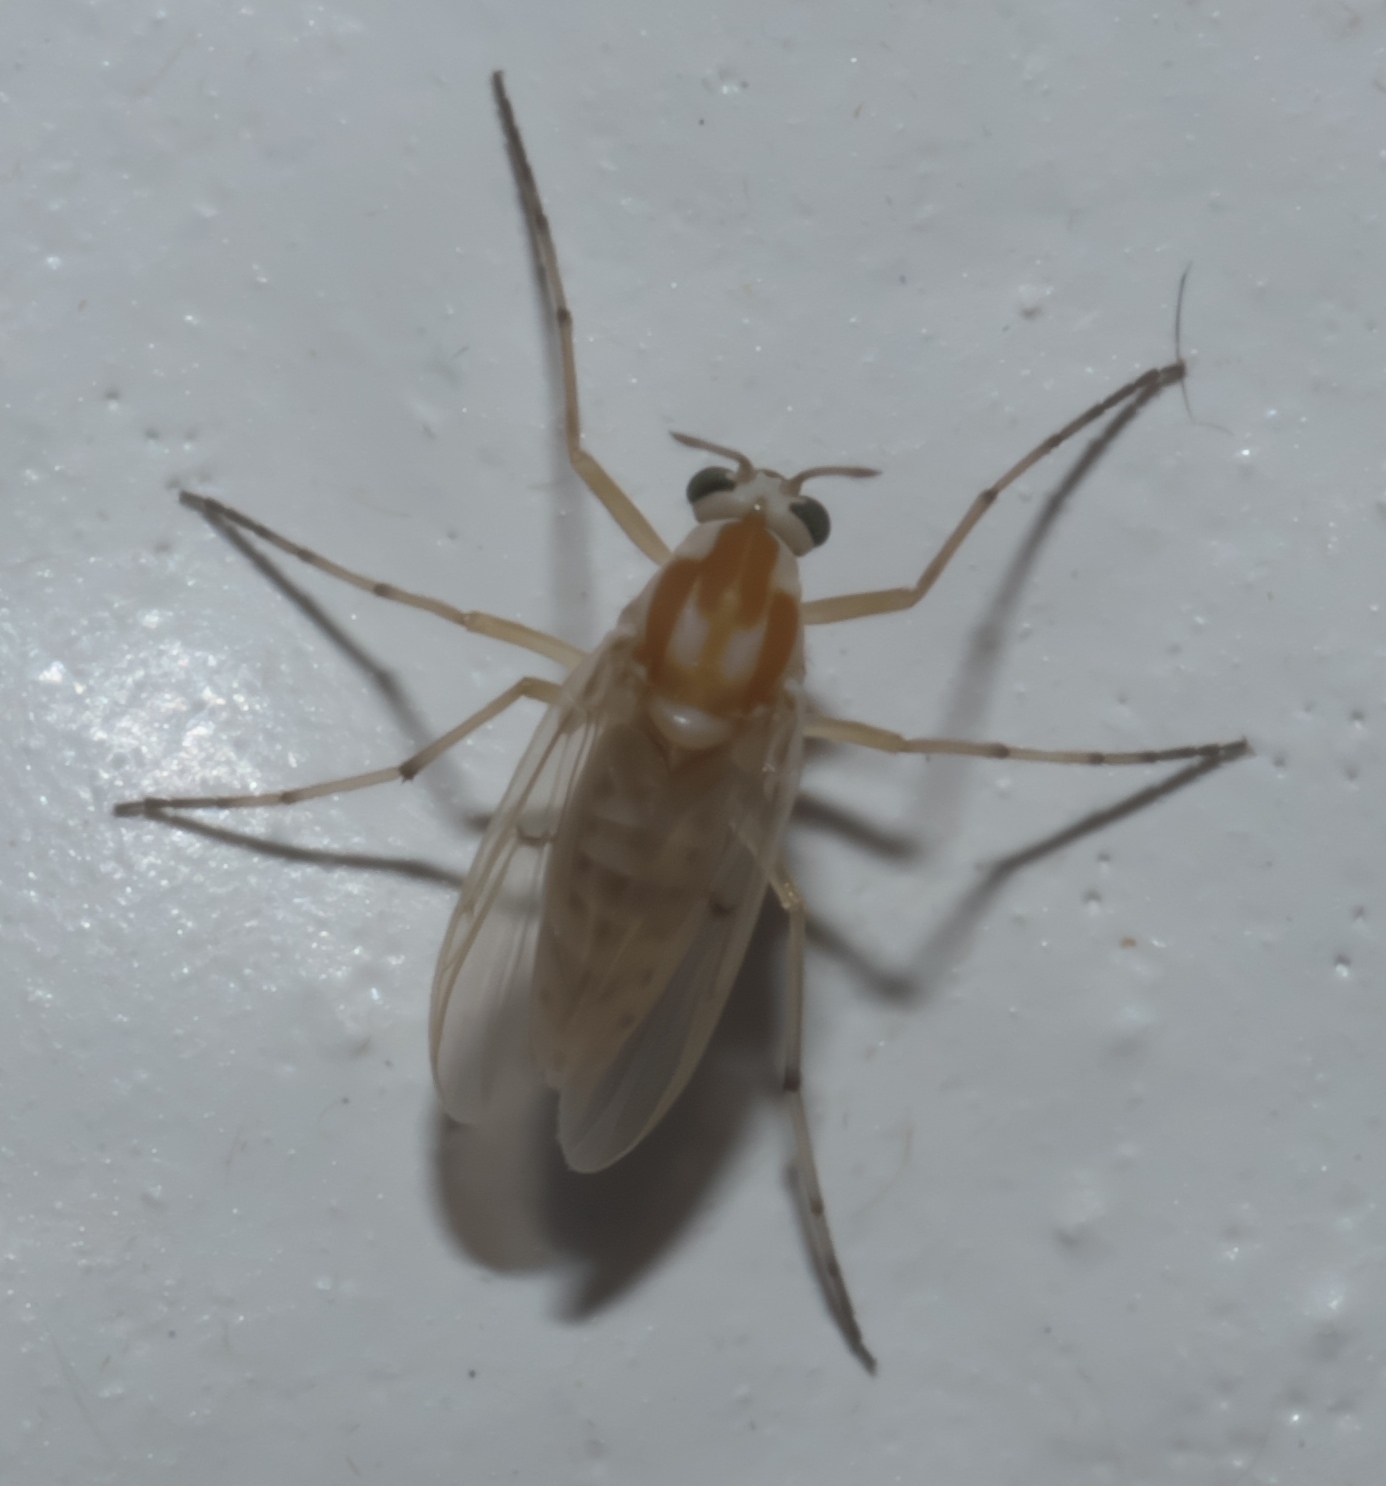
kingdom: Animalia
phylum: Arthropoda
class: Insecta
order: Diptera
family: Chironomidae
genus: Procladius
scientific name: Procladius bellus
